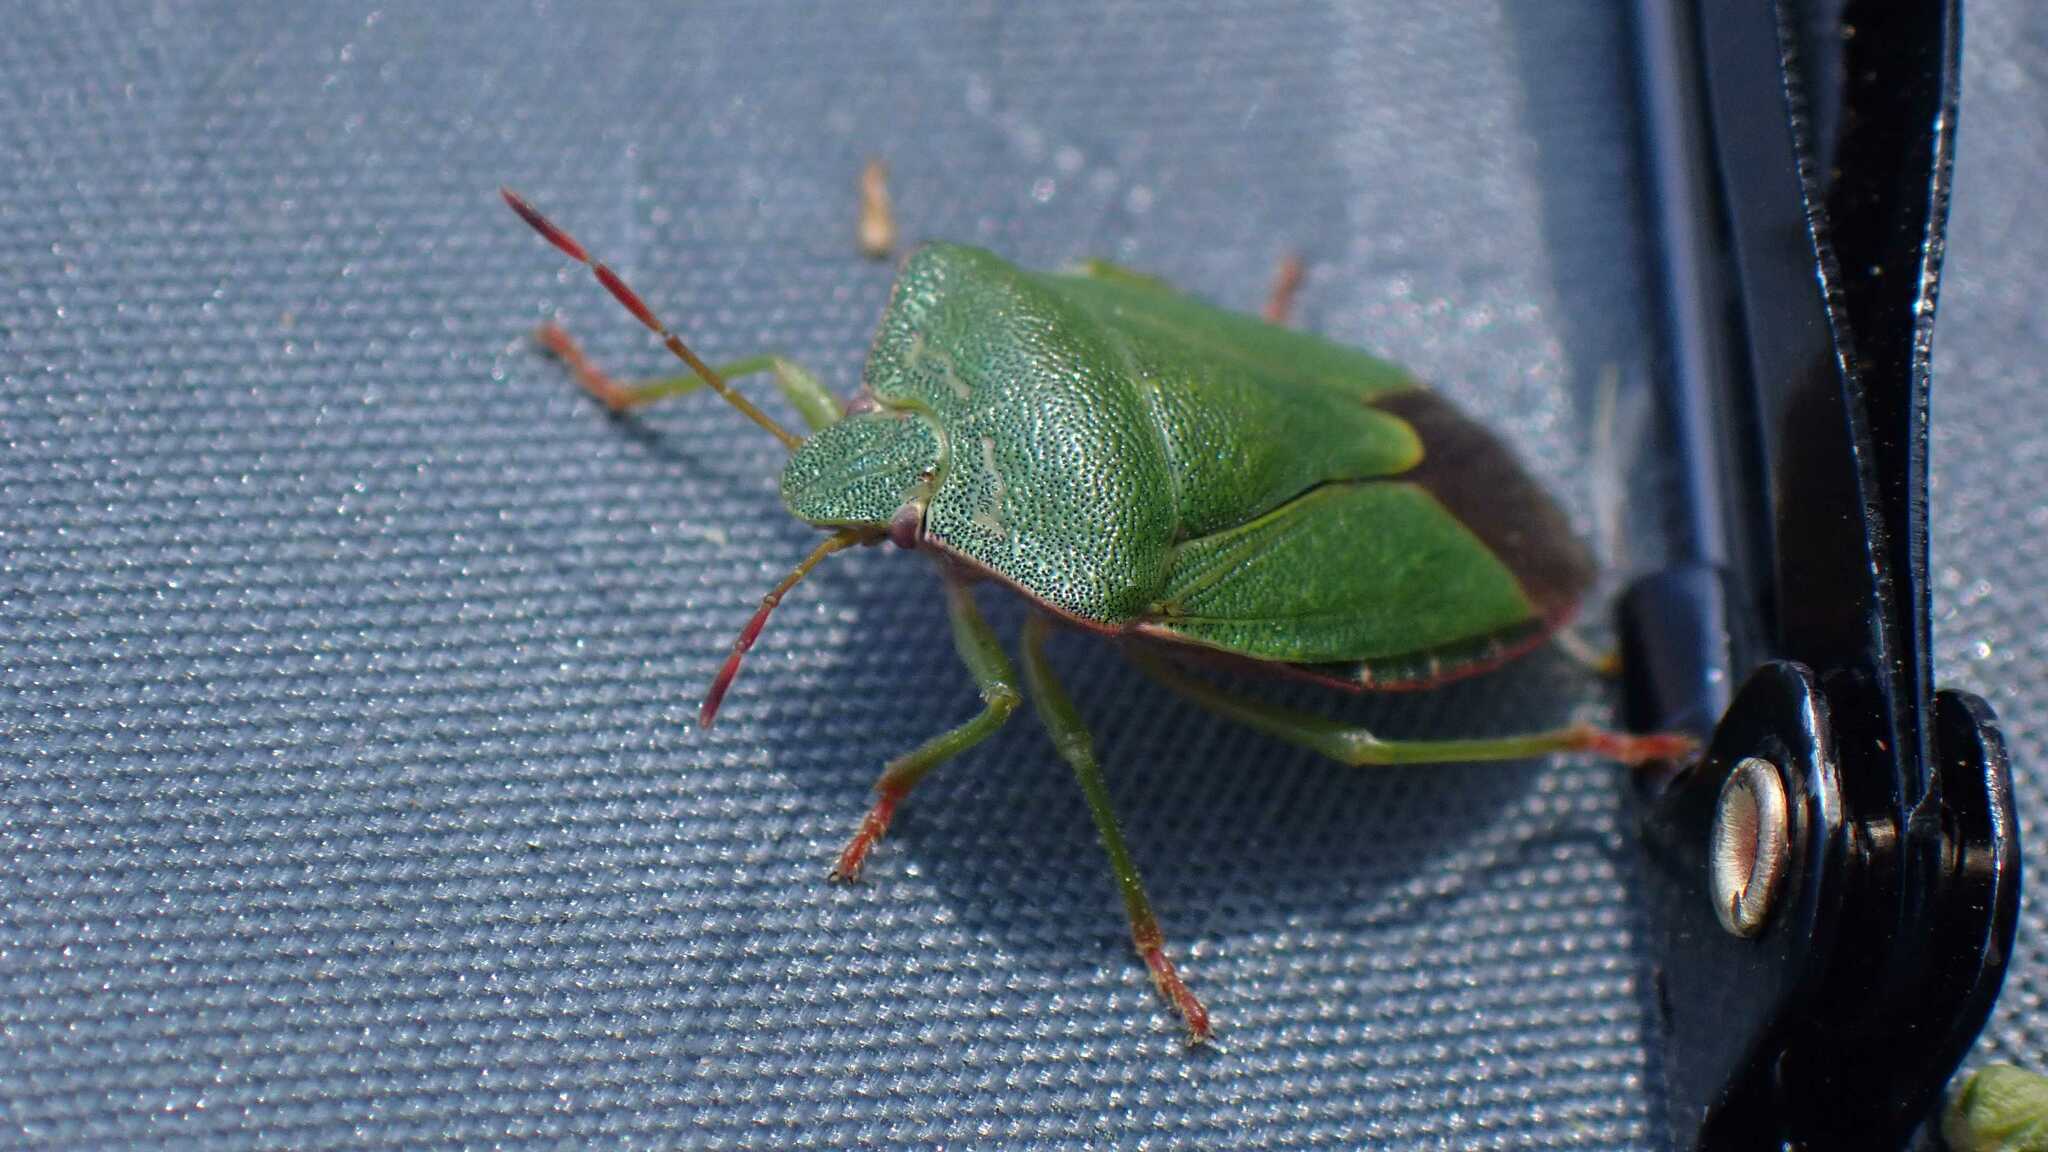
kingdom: Animalia
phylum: Arthropoda
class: Insecta
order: Hemiptera
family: Pentatomidae
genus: Palomena
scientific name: Palomena prasina
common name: Green shieldbug
